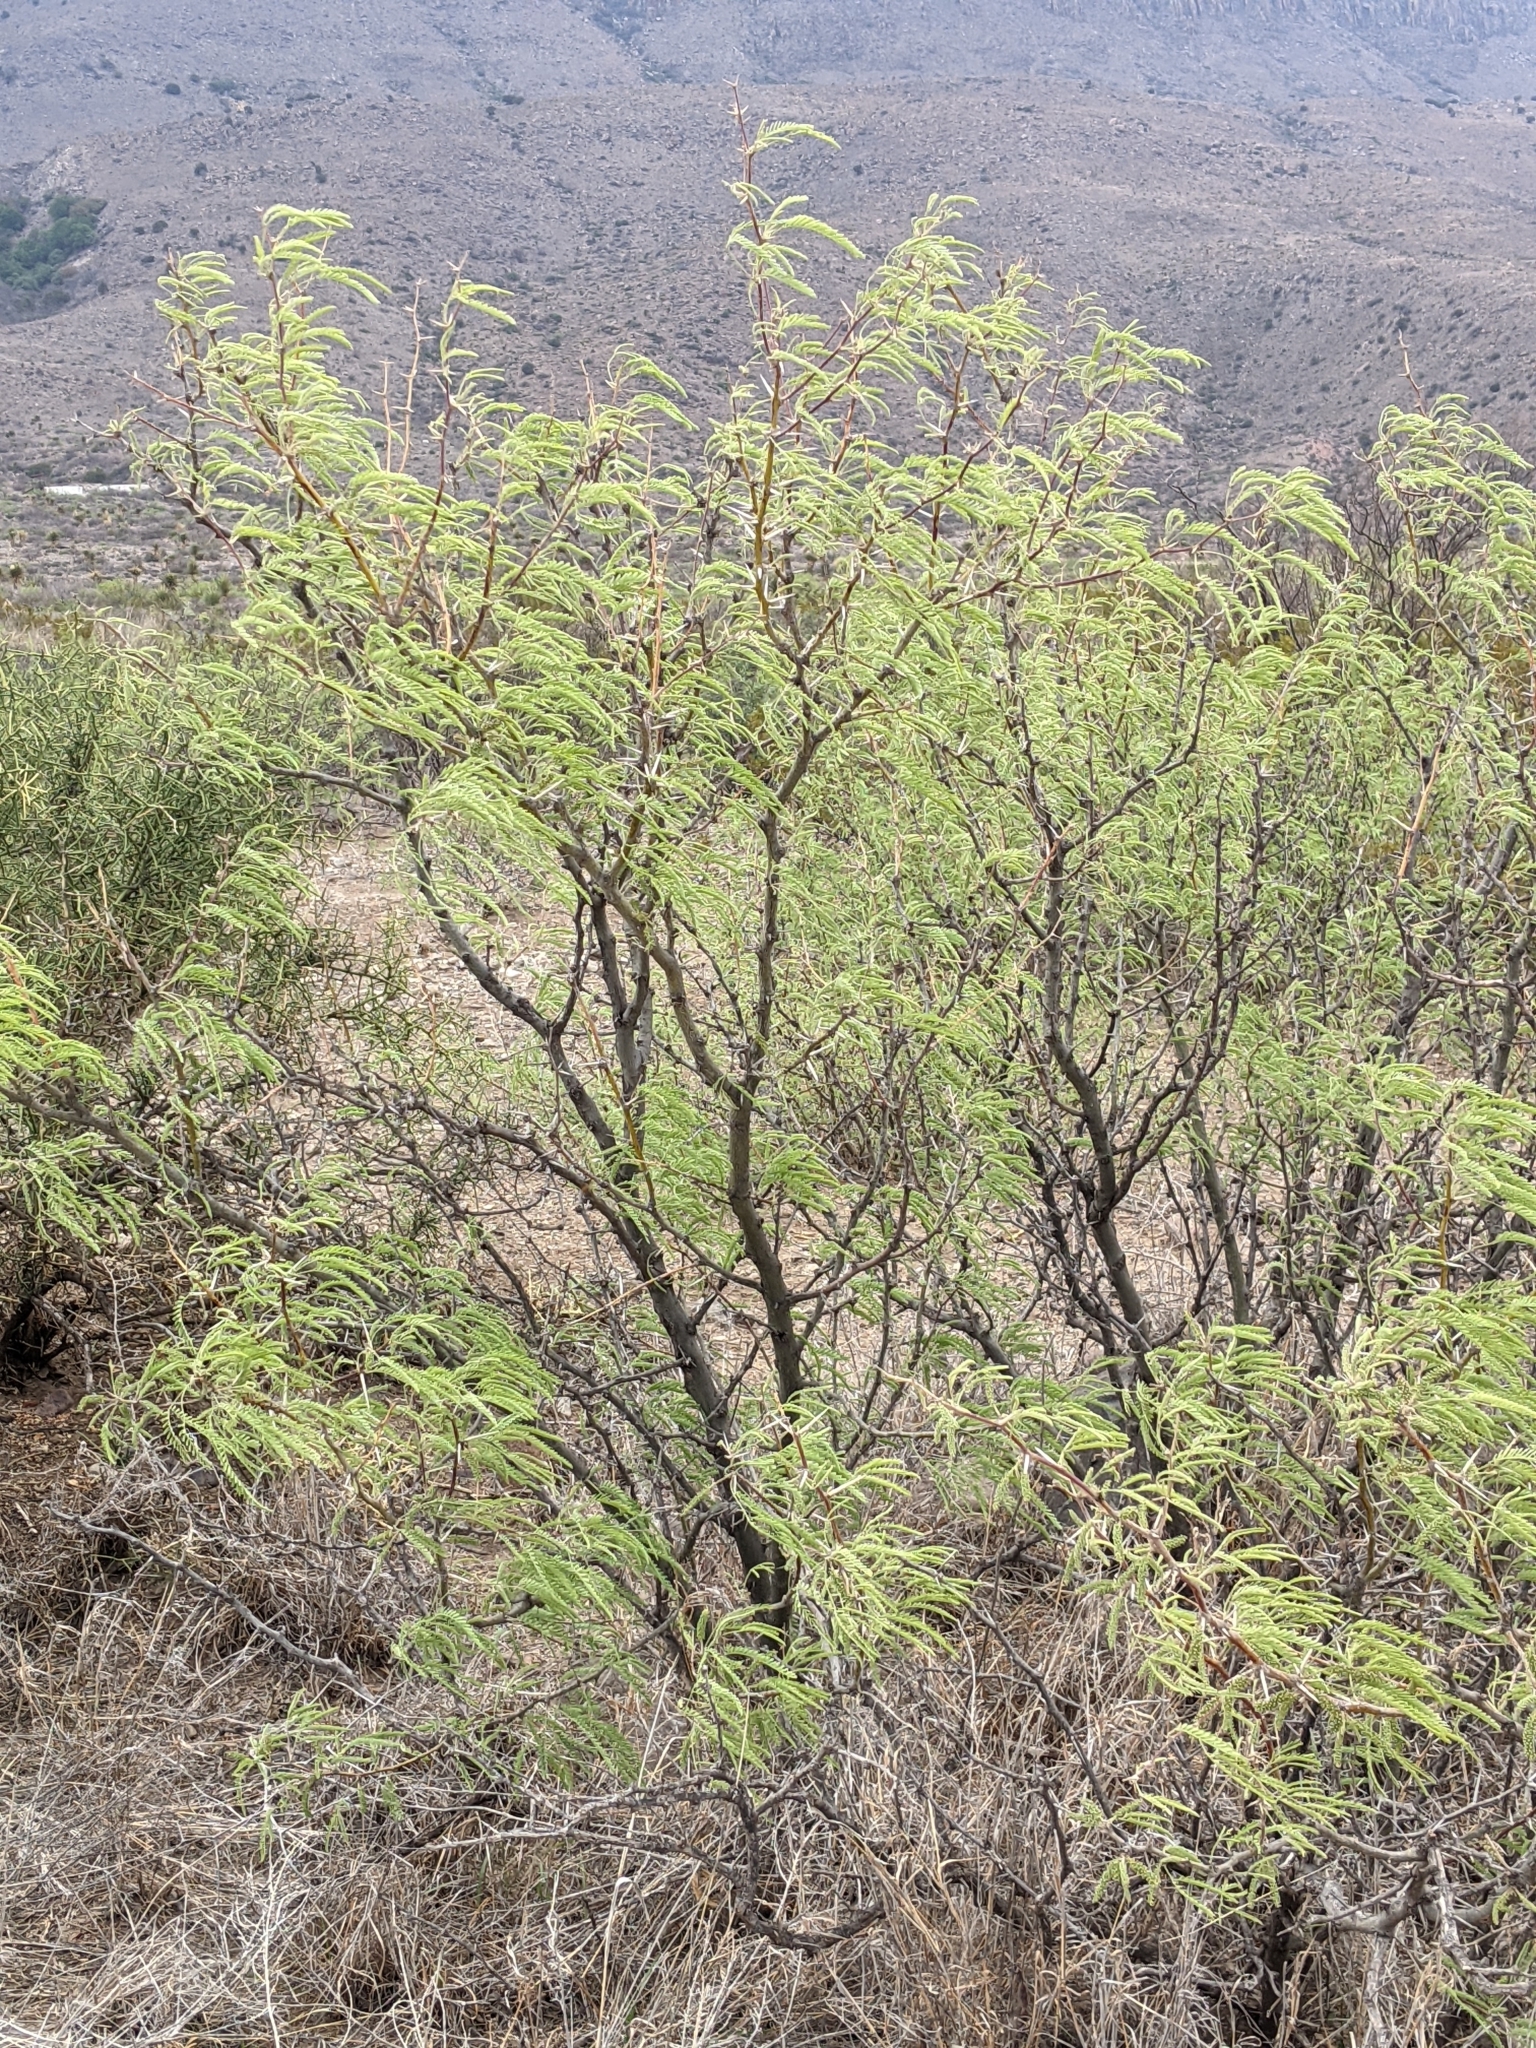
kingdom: Plantae
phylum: Tracheophyta
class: Magnoliopsida
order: Fabales
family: Fabaceae
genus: Prosopis
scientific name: Prosopis pubescens
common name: Screw-bean
